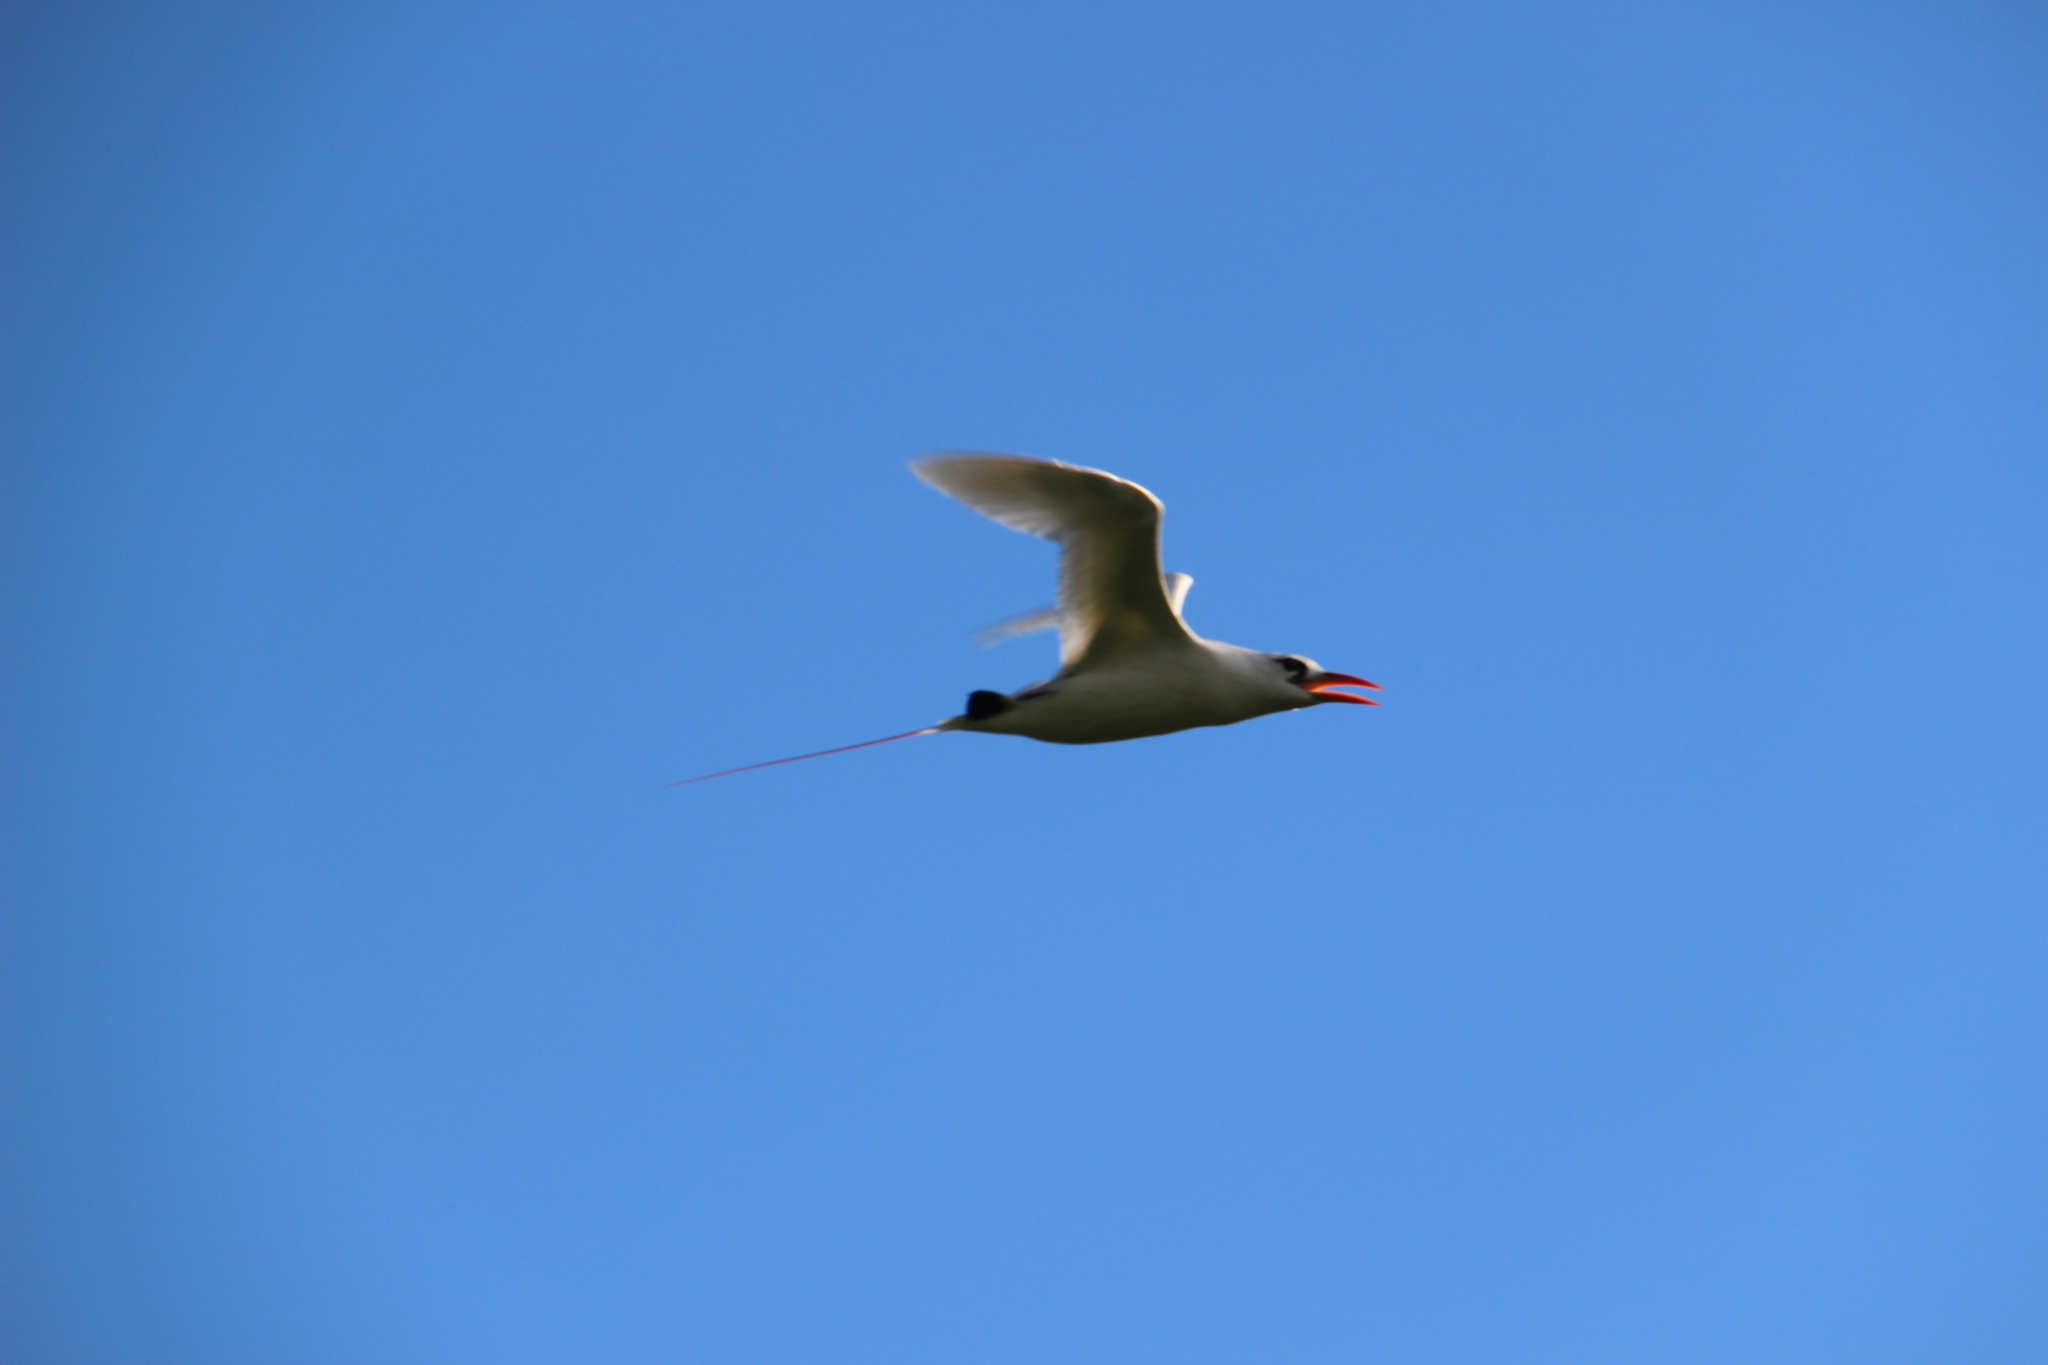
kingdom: Animalia
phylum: Chordata
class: Aves
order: Phaethontiformes
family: Phaethontidae
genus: Phaethon
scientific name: Phaethon rubricauda
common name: Red-tailed tropicbird
